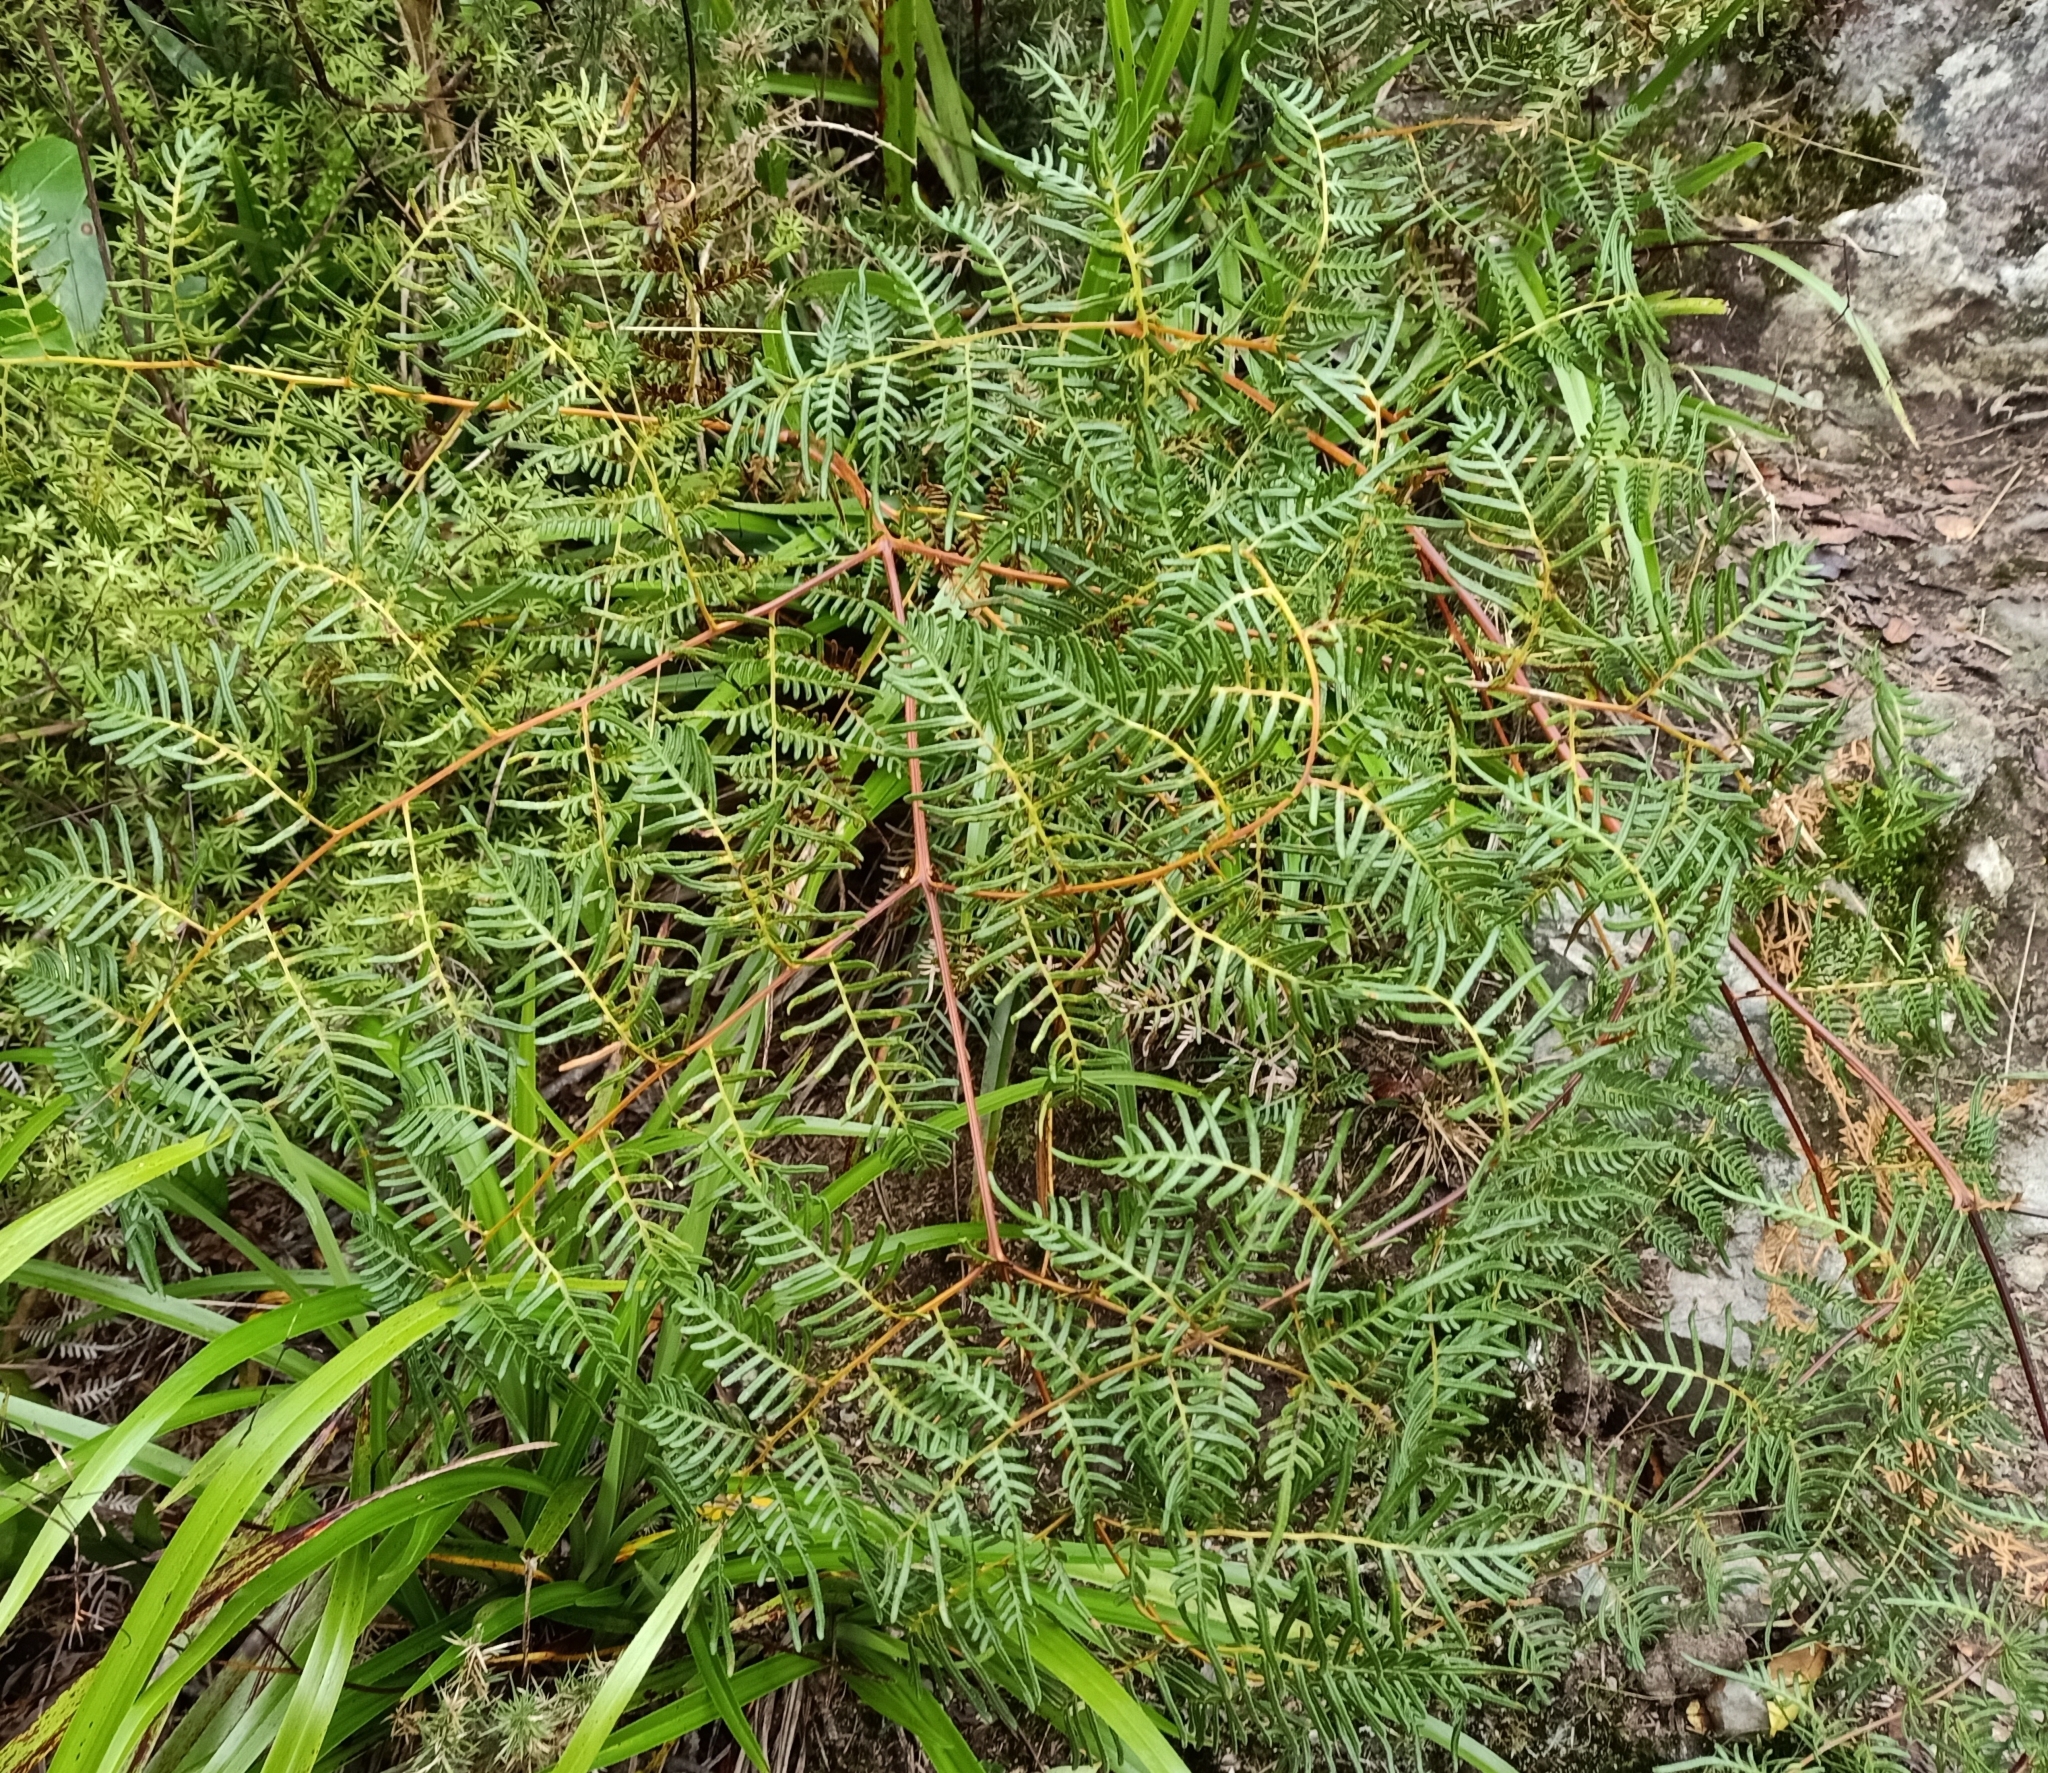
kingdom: Plantae
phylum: Tracheophyta
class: Polypodiopsida
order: Polypodiales
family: Dennstaedtiaceae
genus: Pteridium
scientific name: Pteridium esculentum
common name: Bracken fern
